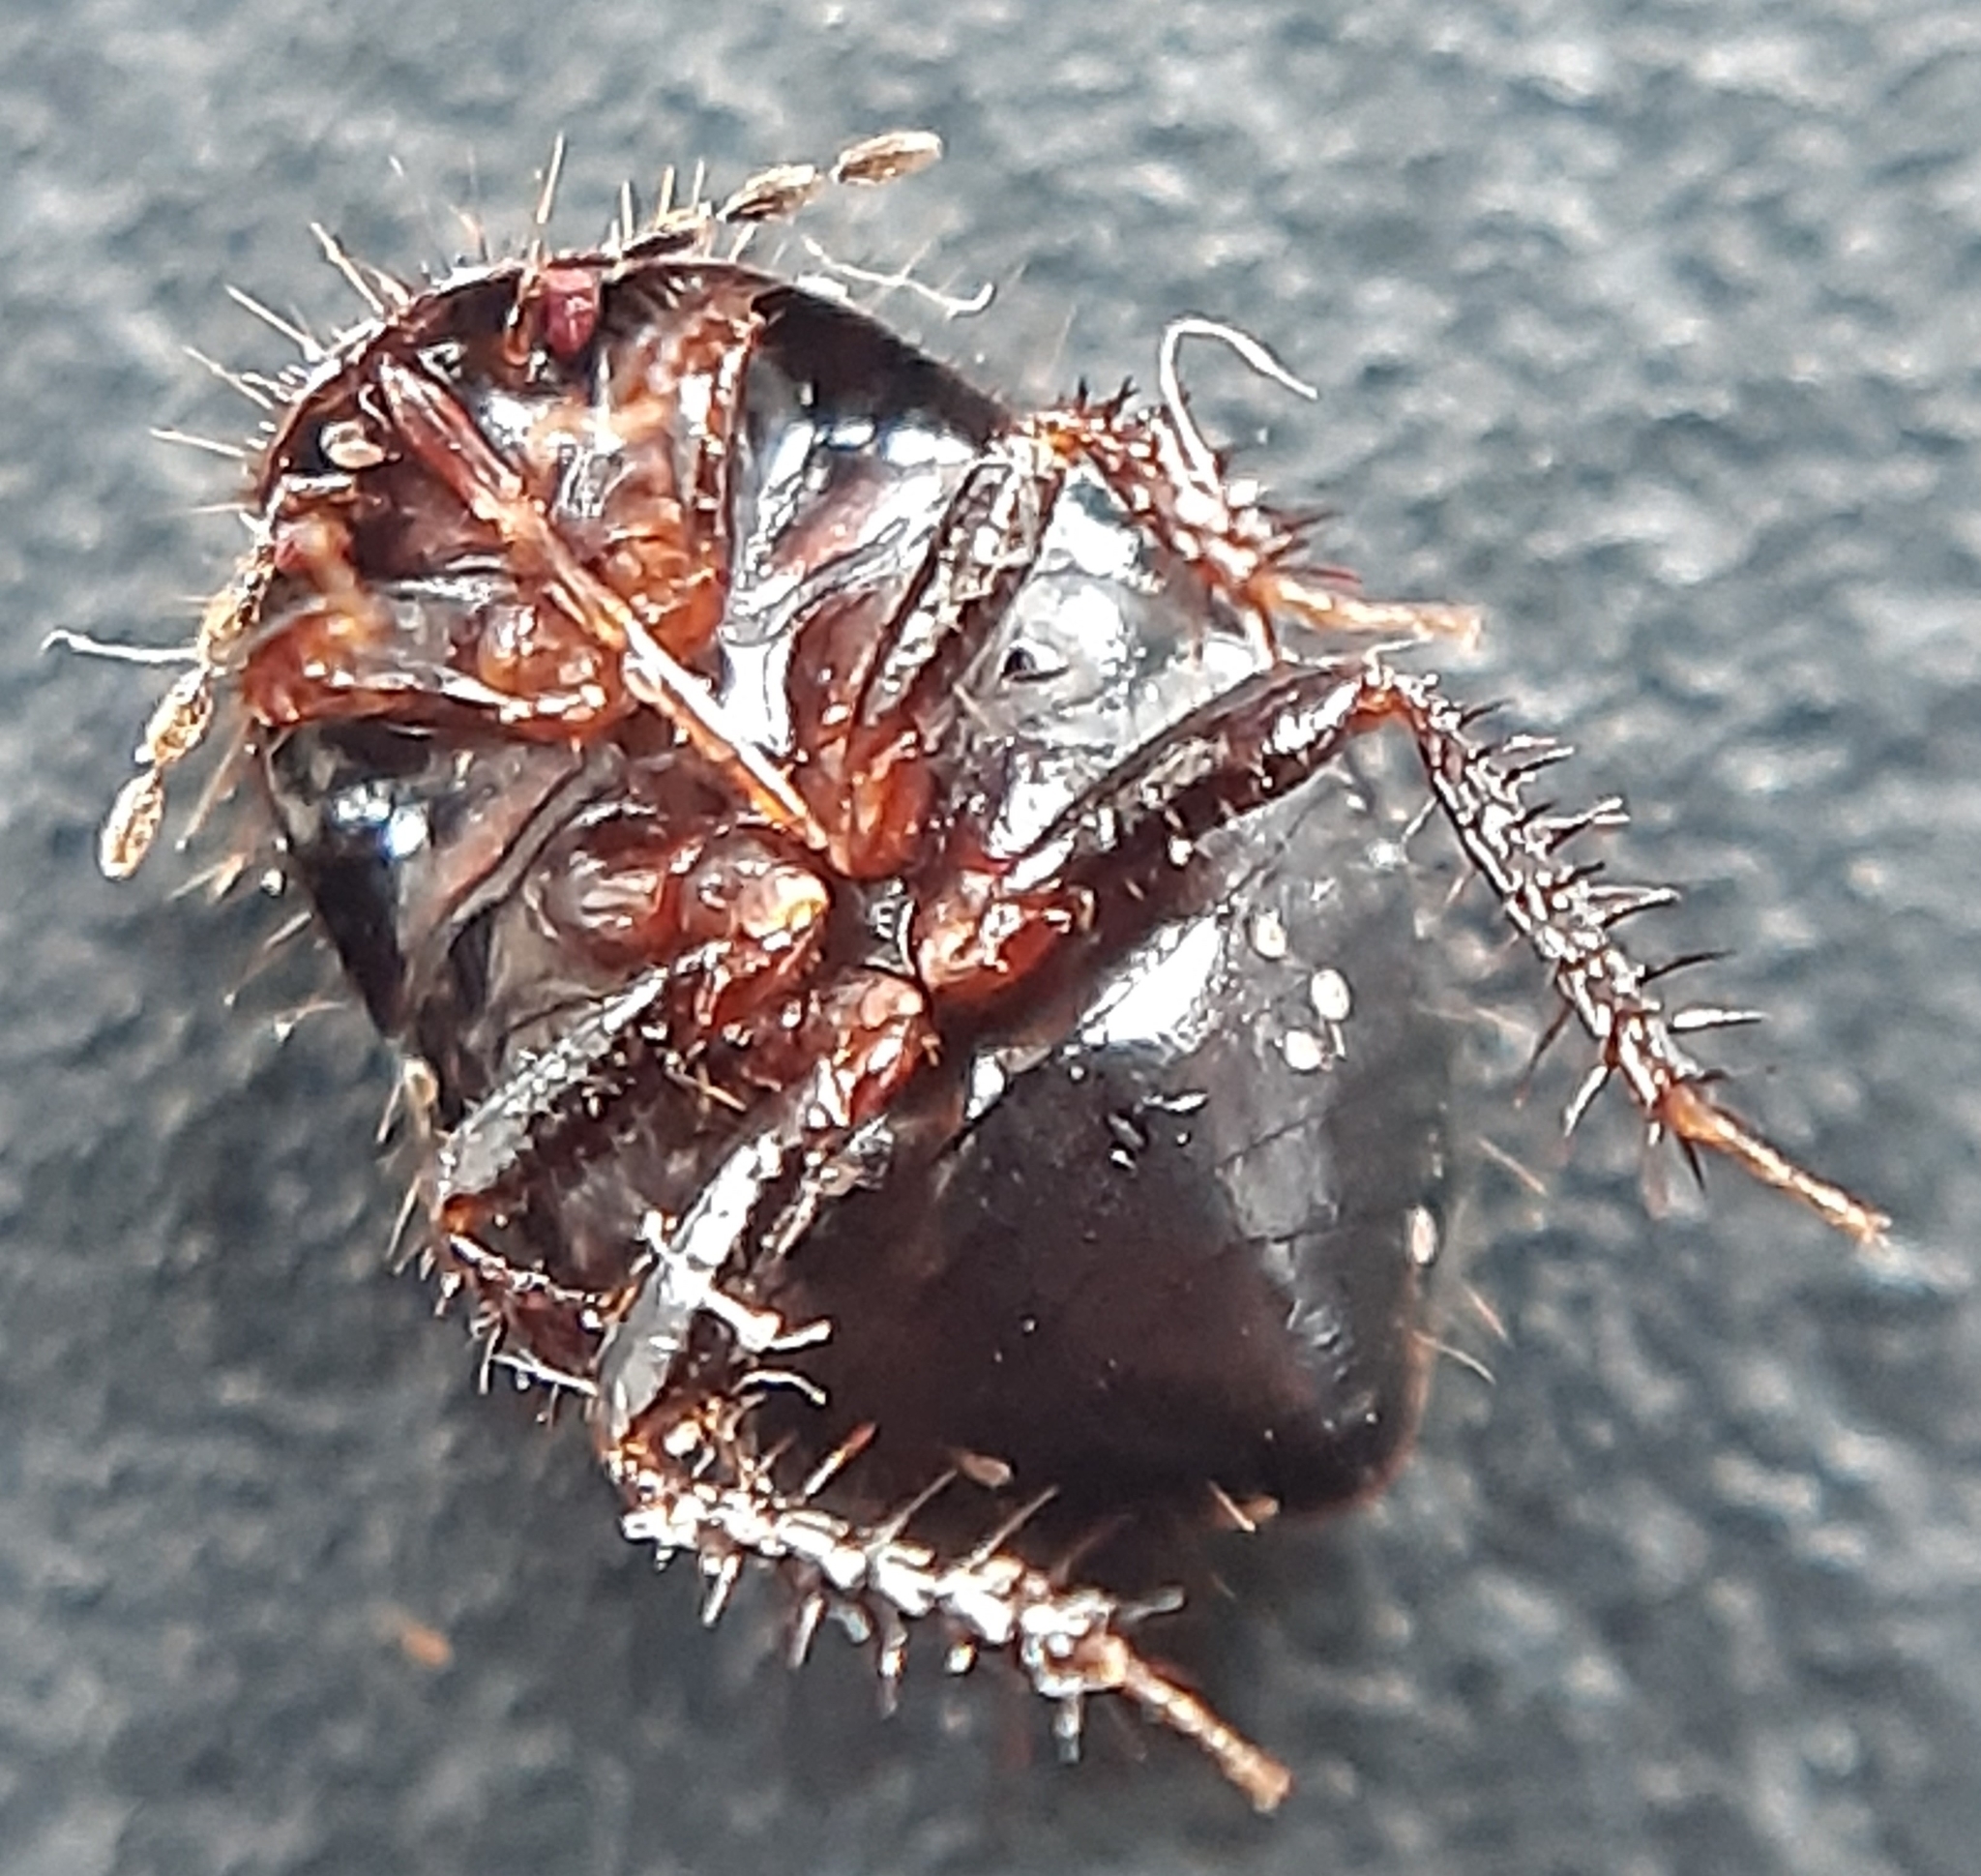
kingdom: Animalia
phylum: Arthropoda
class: Insecta
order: Hemiptera
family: Cydnidae
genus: Microporus
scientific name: Microporus nigrita
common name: Burrower bug
